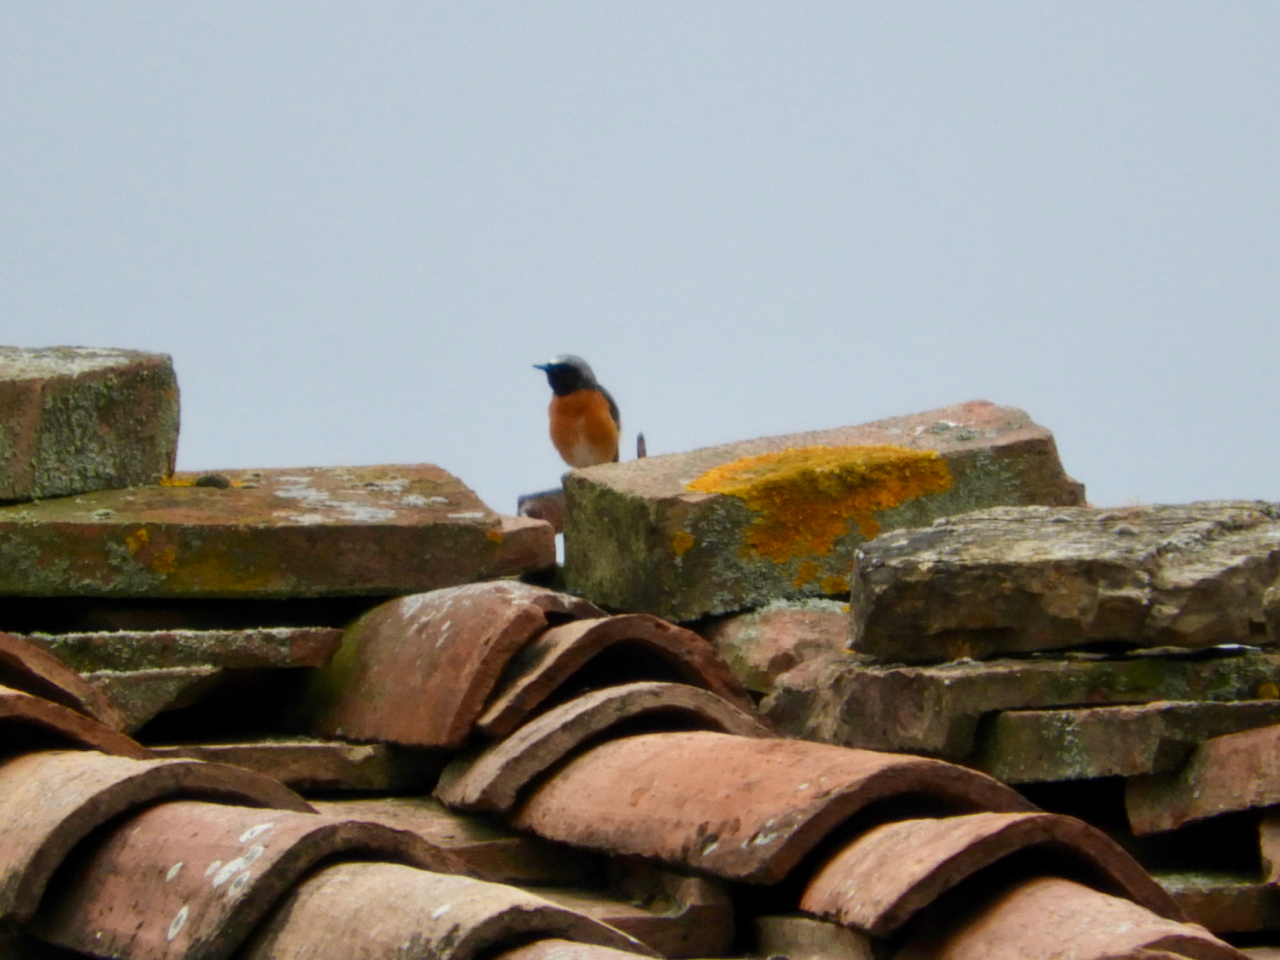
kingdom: Animalia
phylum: Chordata
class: Aves
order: Passeriformes
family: Muscicapidae
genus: Phoenicurus
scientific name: Phoenicurus phoenicurus
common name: Common redstart
